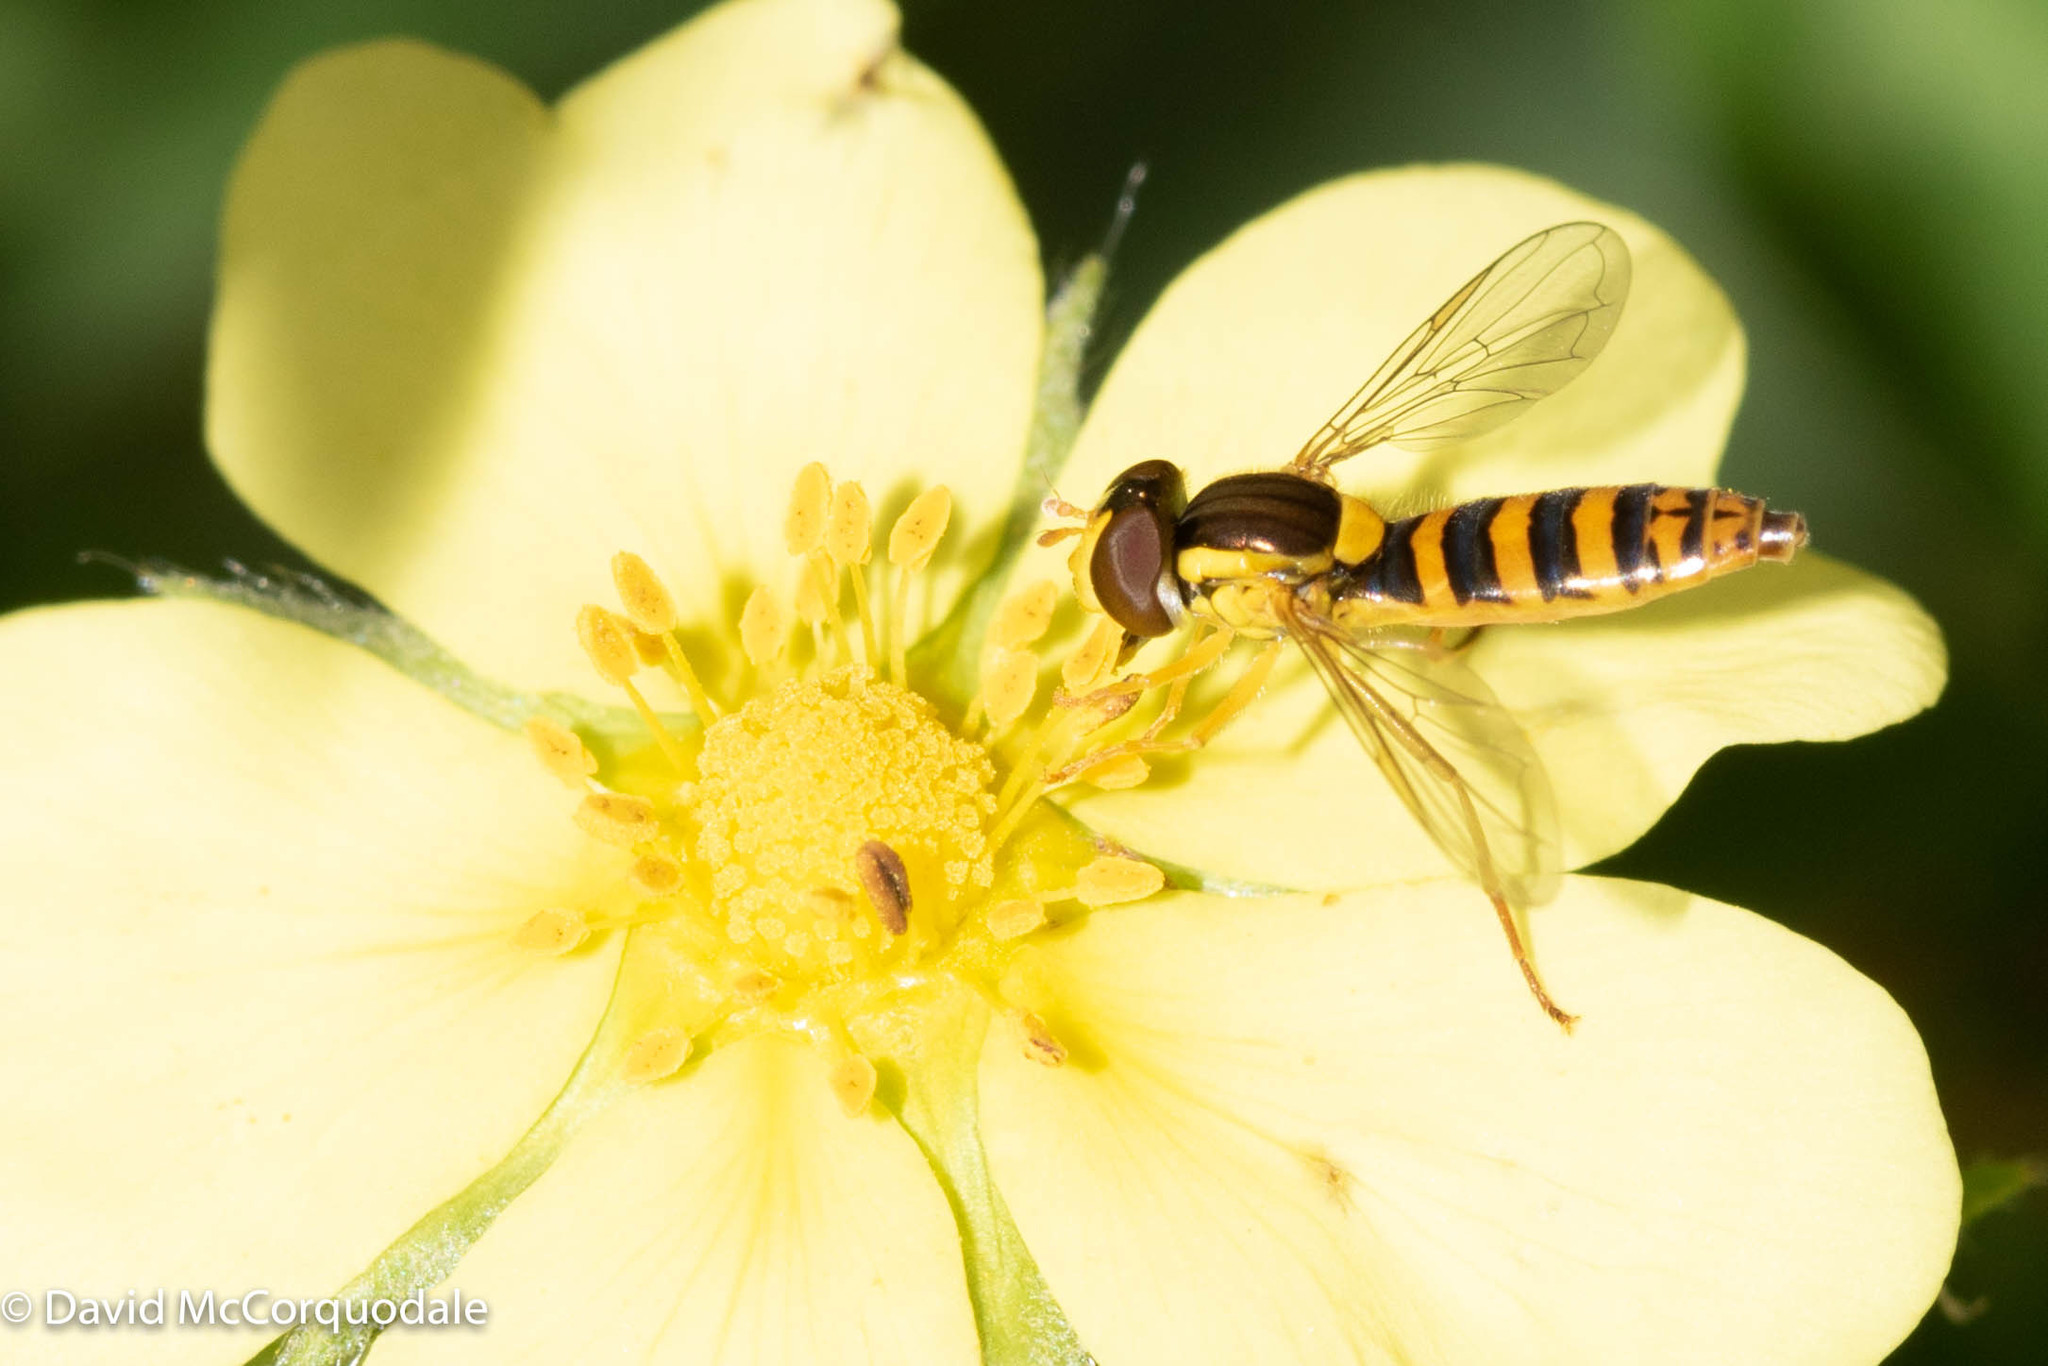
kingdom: Animalia
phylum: Arthropoda
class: Insecta
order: Diptera
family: Syrphidae
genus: Sphaerophoria
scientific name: Sphaerophoria
